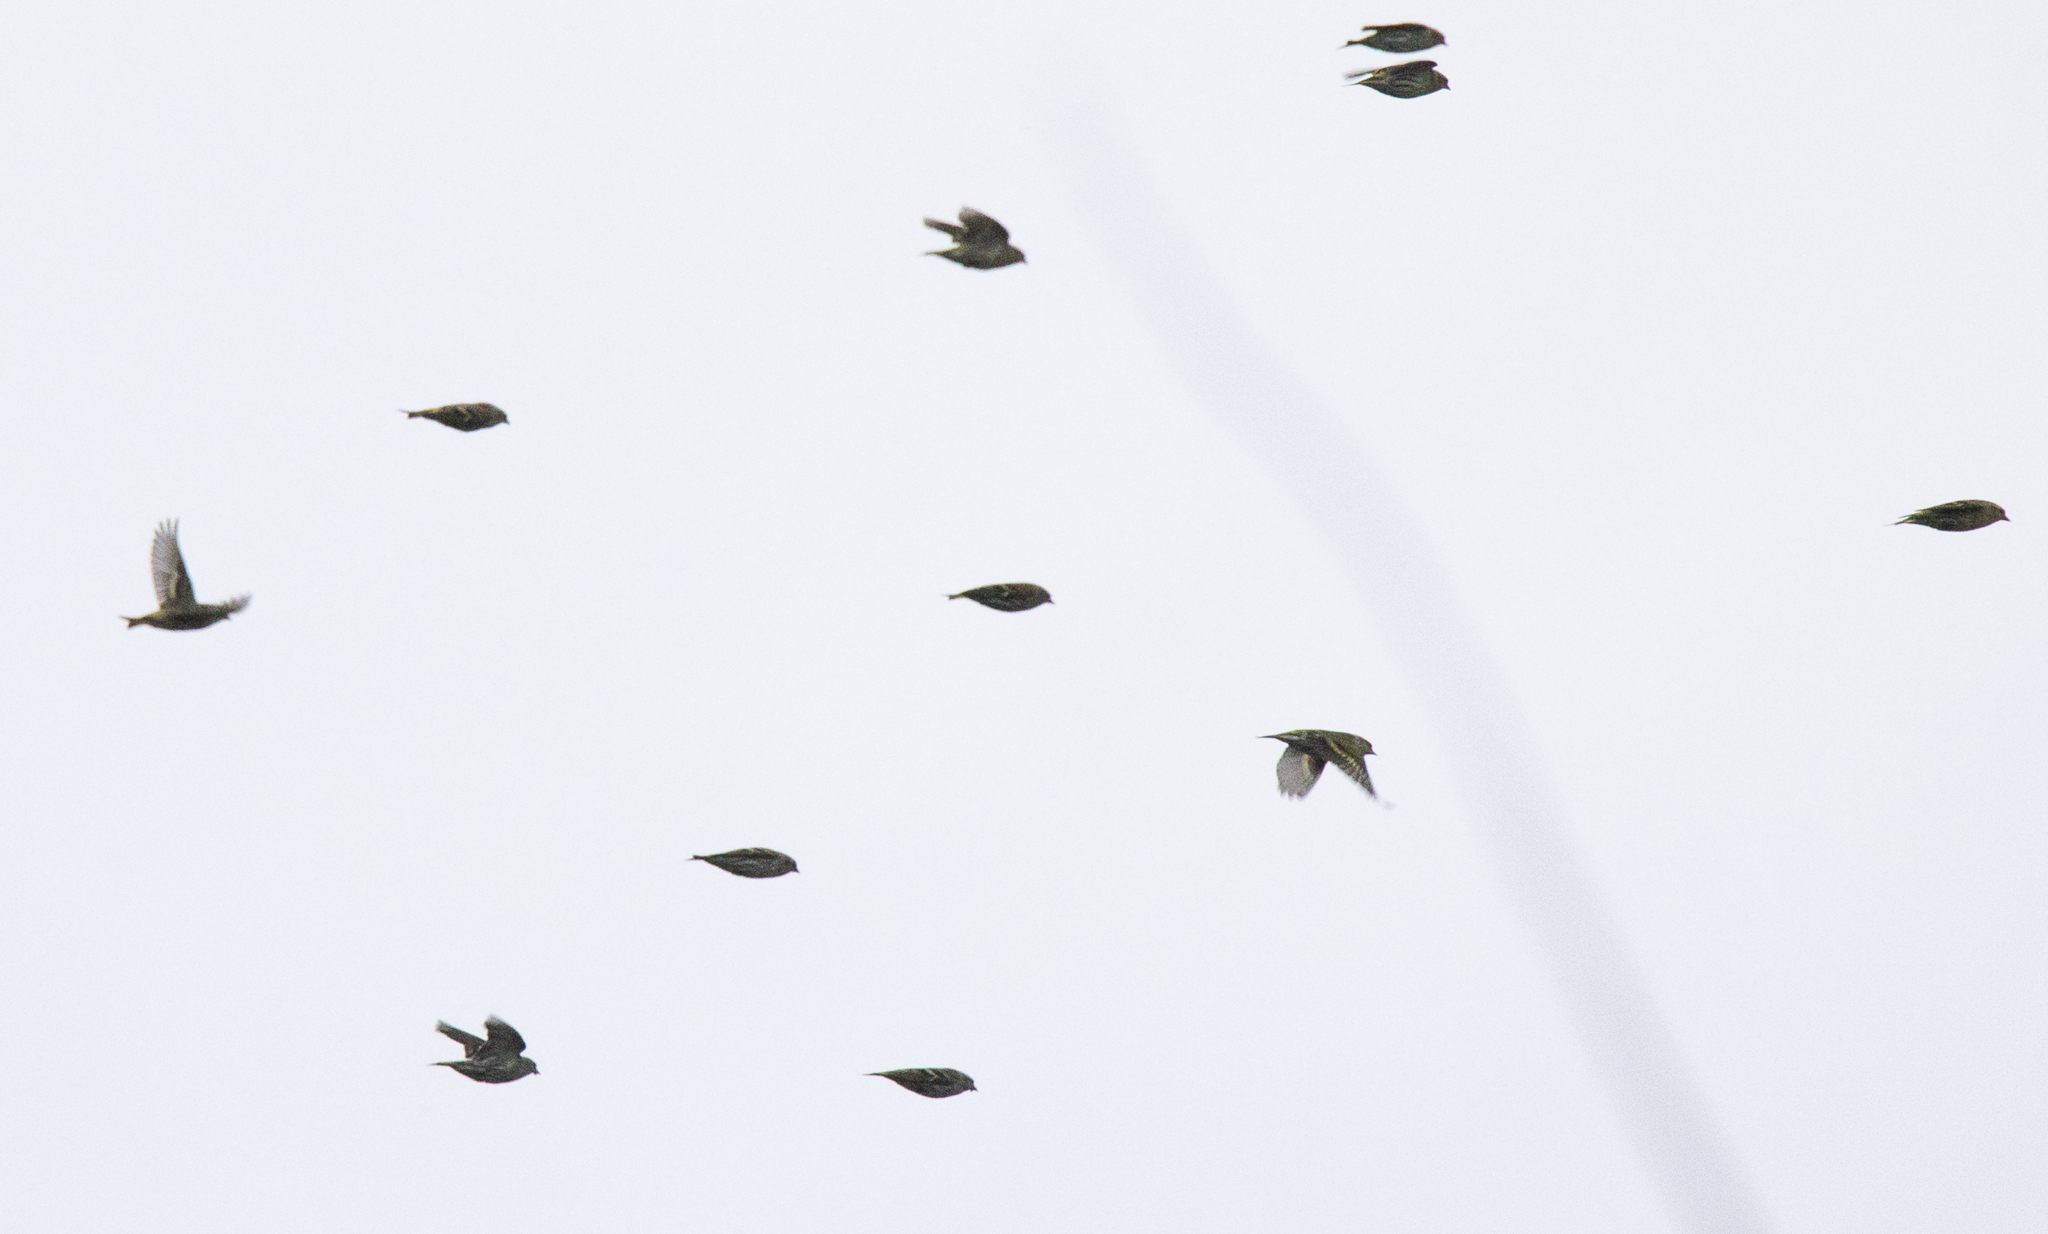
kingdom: Animalia
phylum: Chordata
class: Aves
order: Passeriformes
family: Fringillidae
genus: Spinus
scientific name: Spinus spinus
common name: Eurasian siskin
